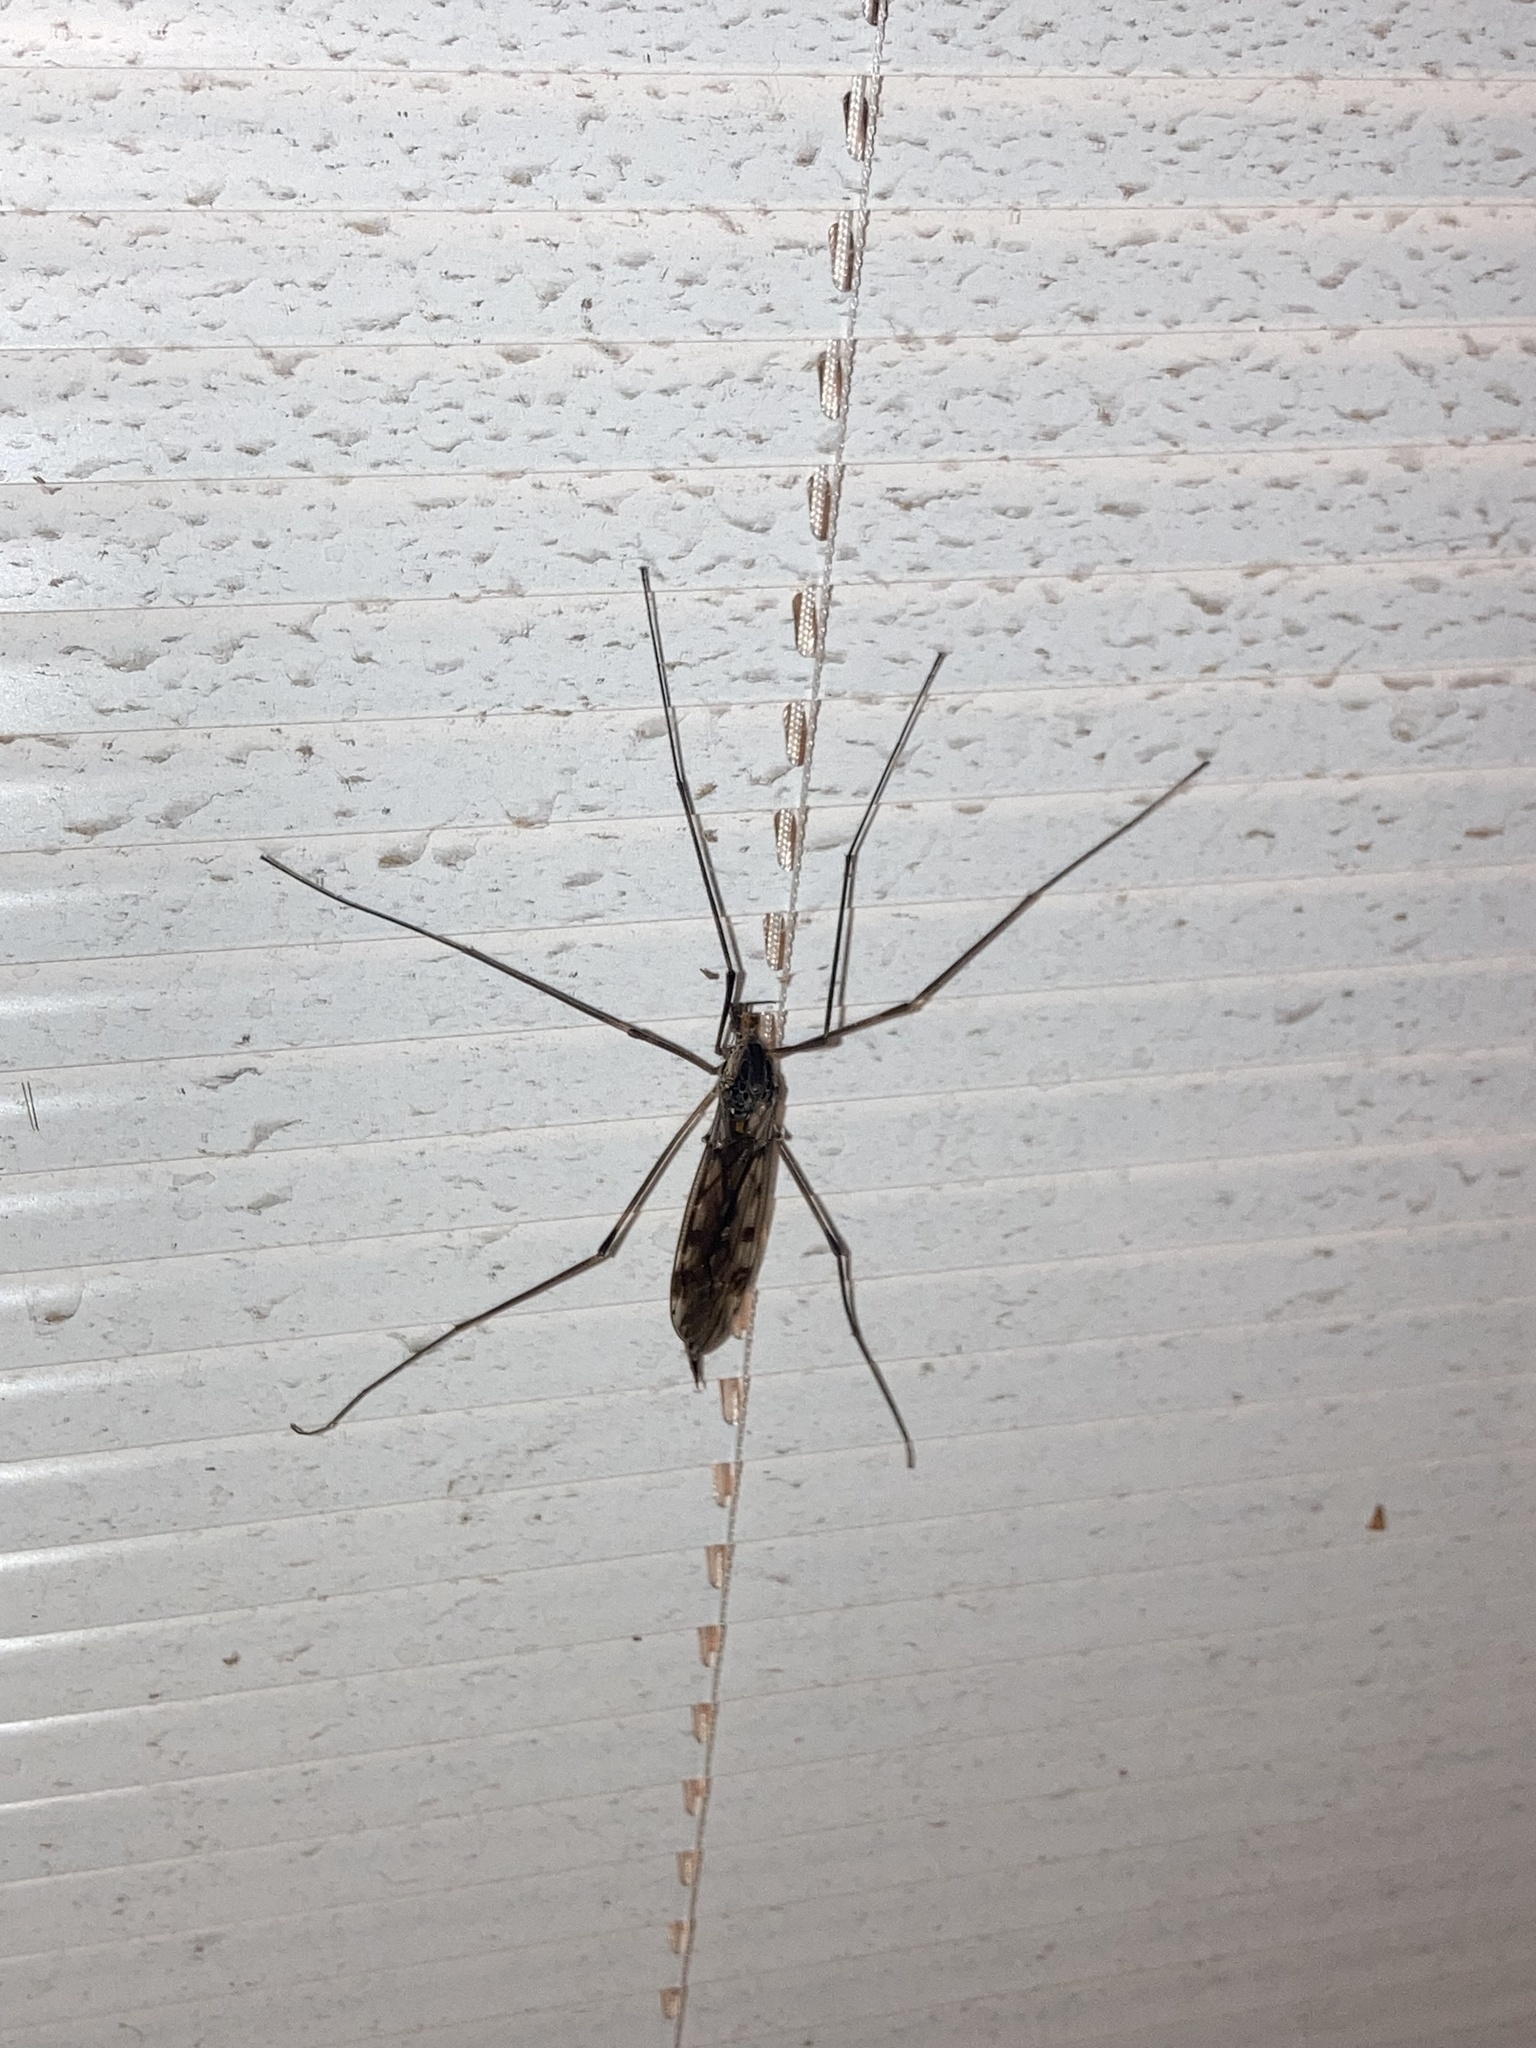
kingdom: Animalia
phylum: Arthropoda
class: Insecta
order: Diptera
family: Tipulidae
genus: Tipula
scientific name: Tipula abdominalis
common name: Giant crane fly
